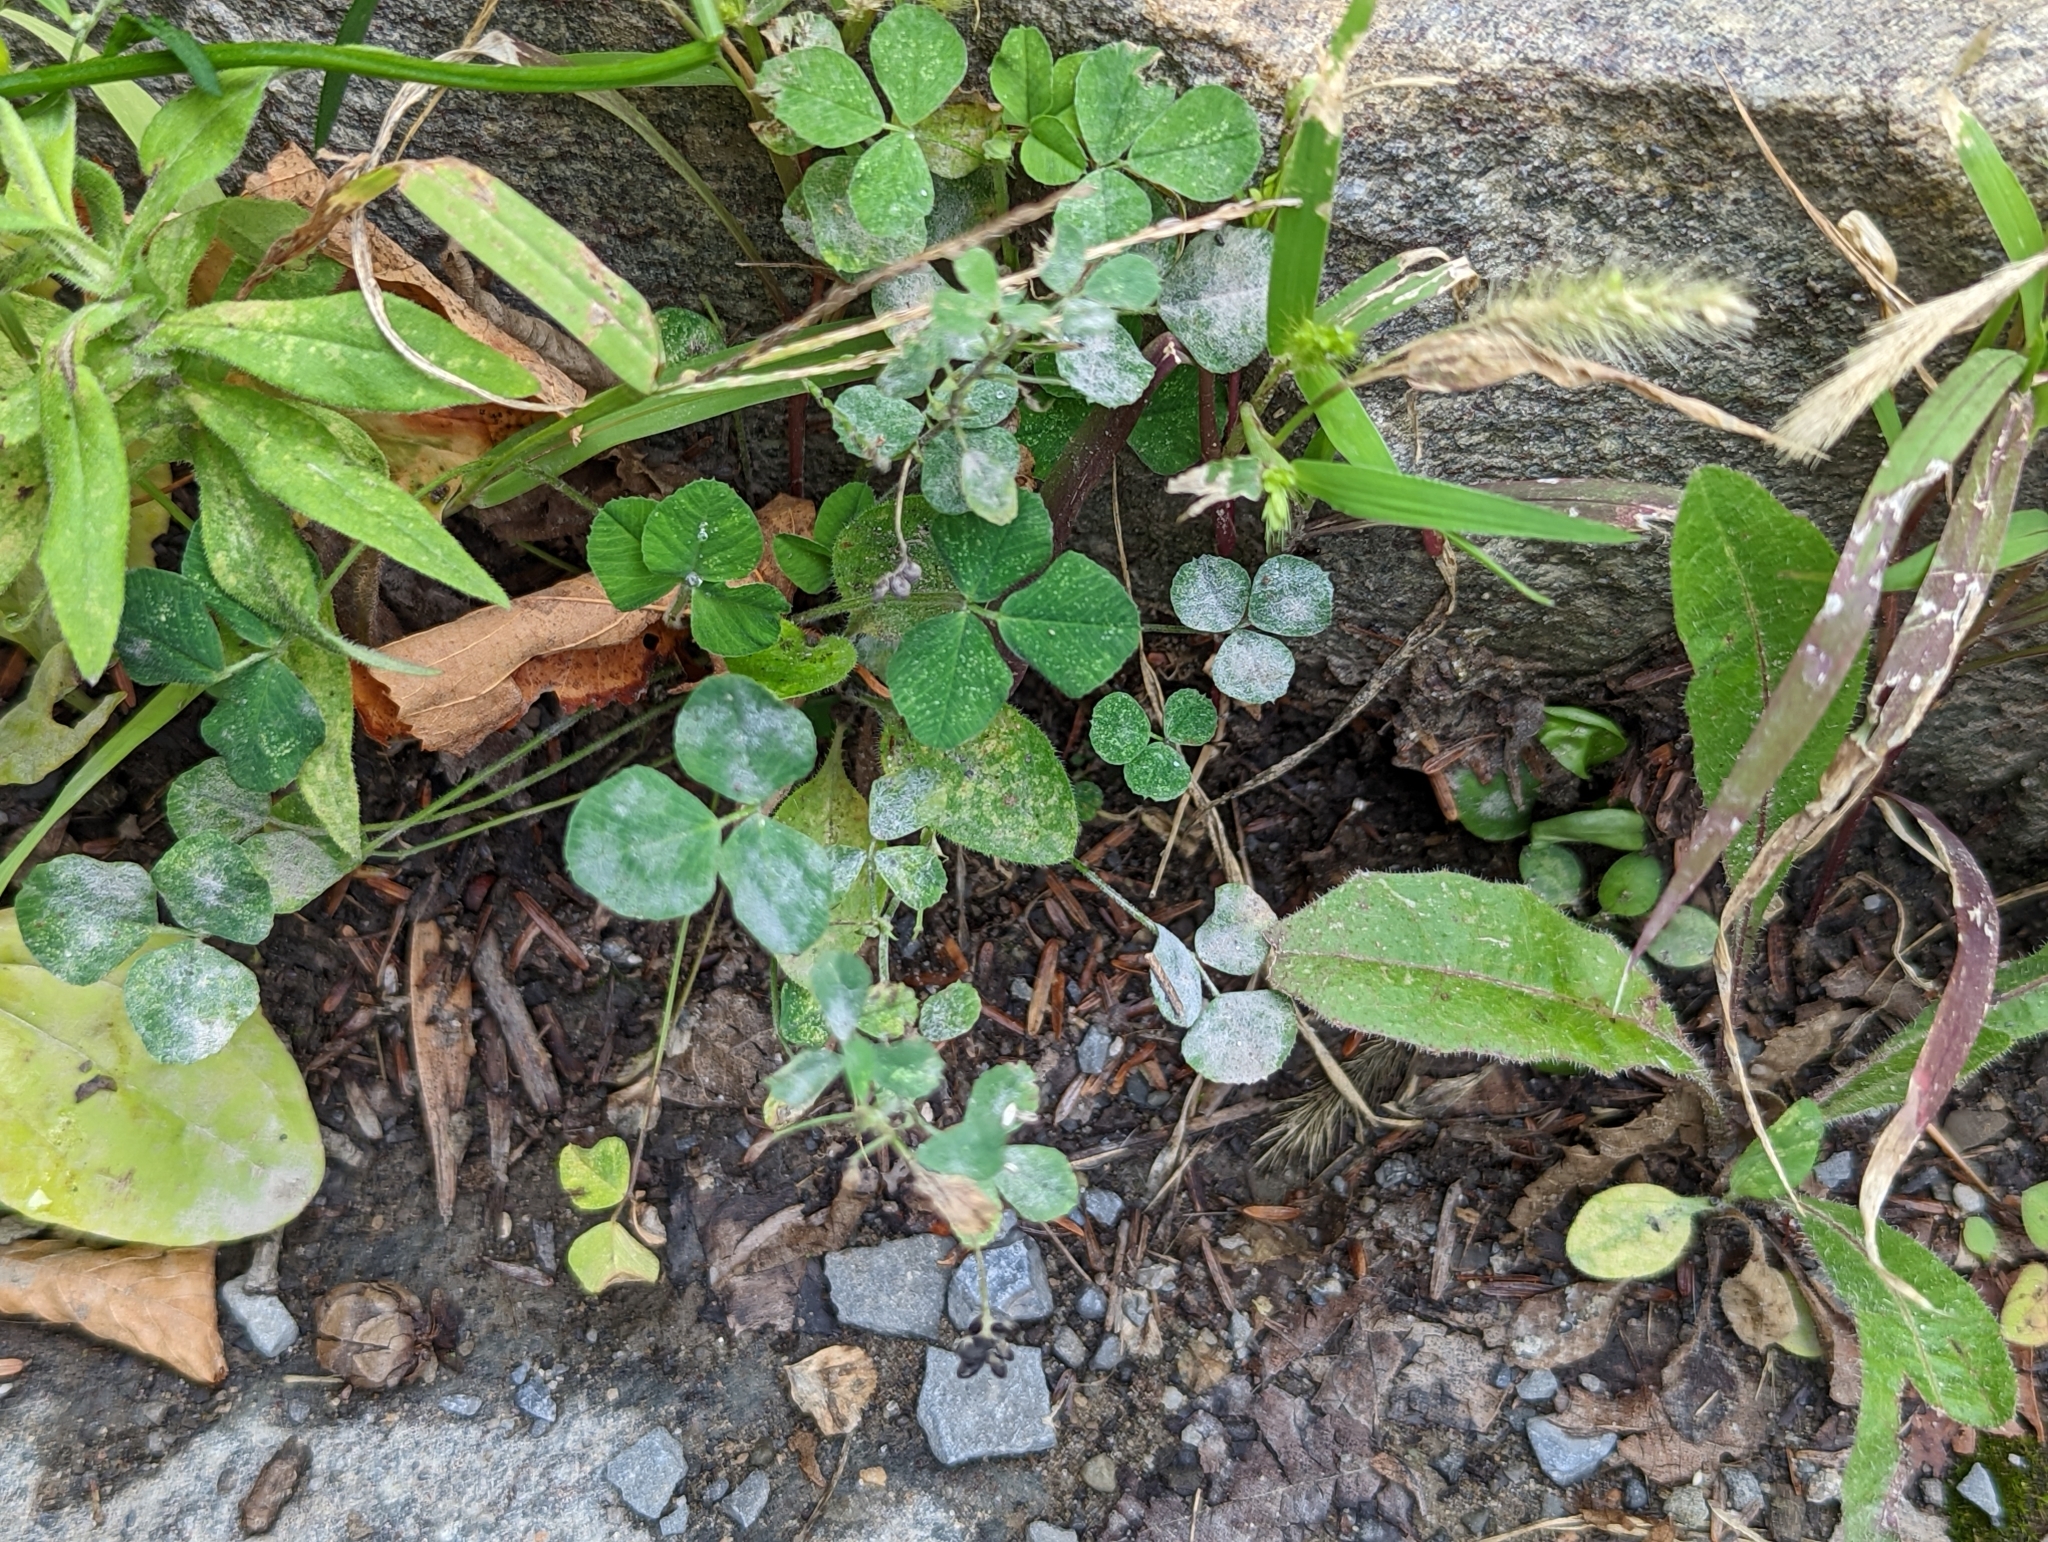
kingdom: Fungi
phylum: Ascomycota
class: Leotiomycetes
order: Helotiales
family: Erysiphaceae
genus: Erysiphe
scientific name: Erysiphe trifoliorum
